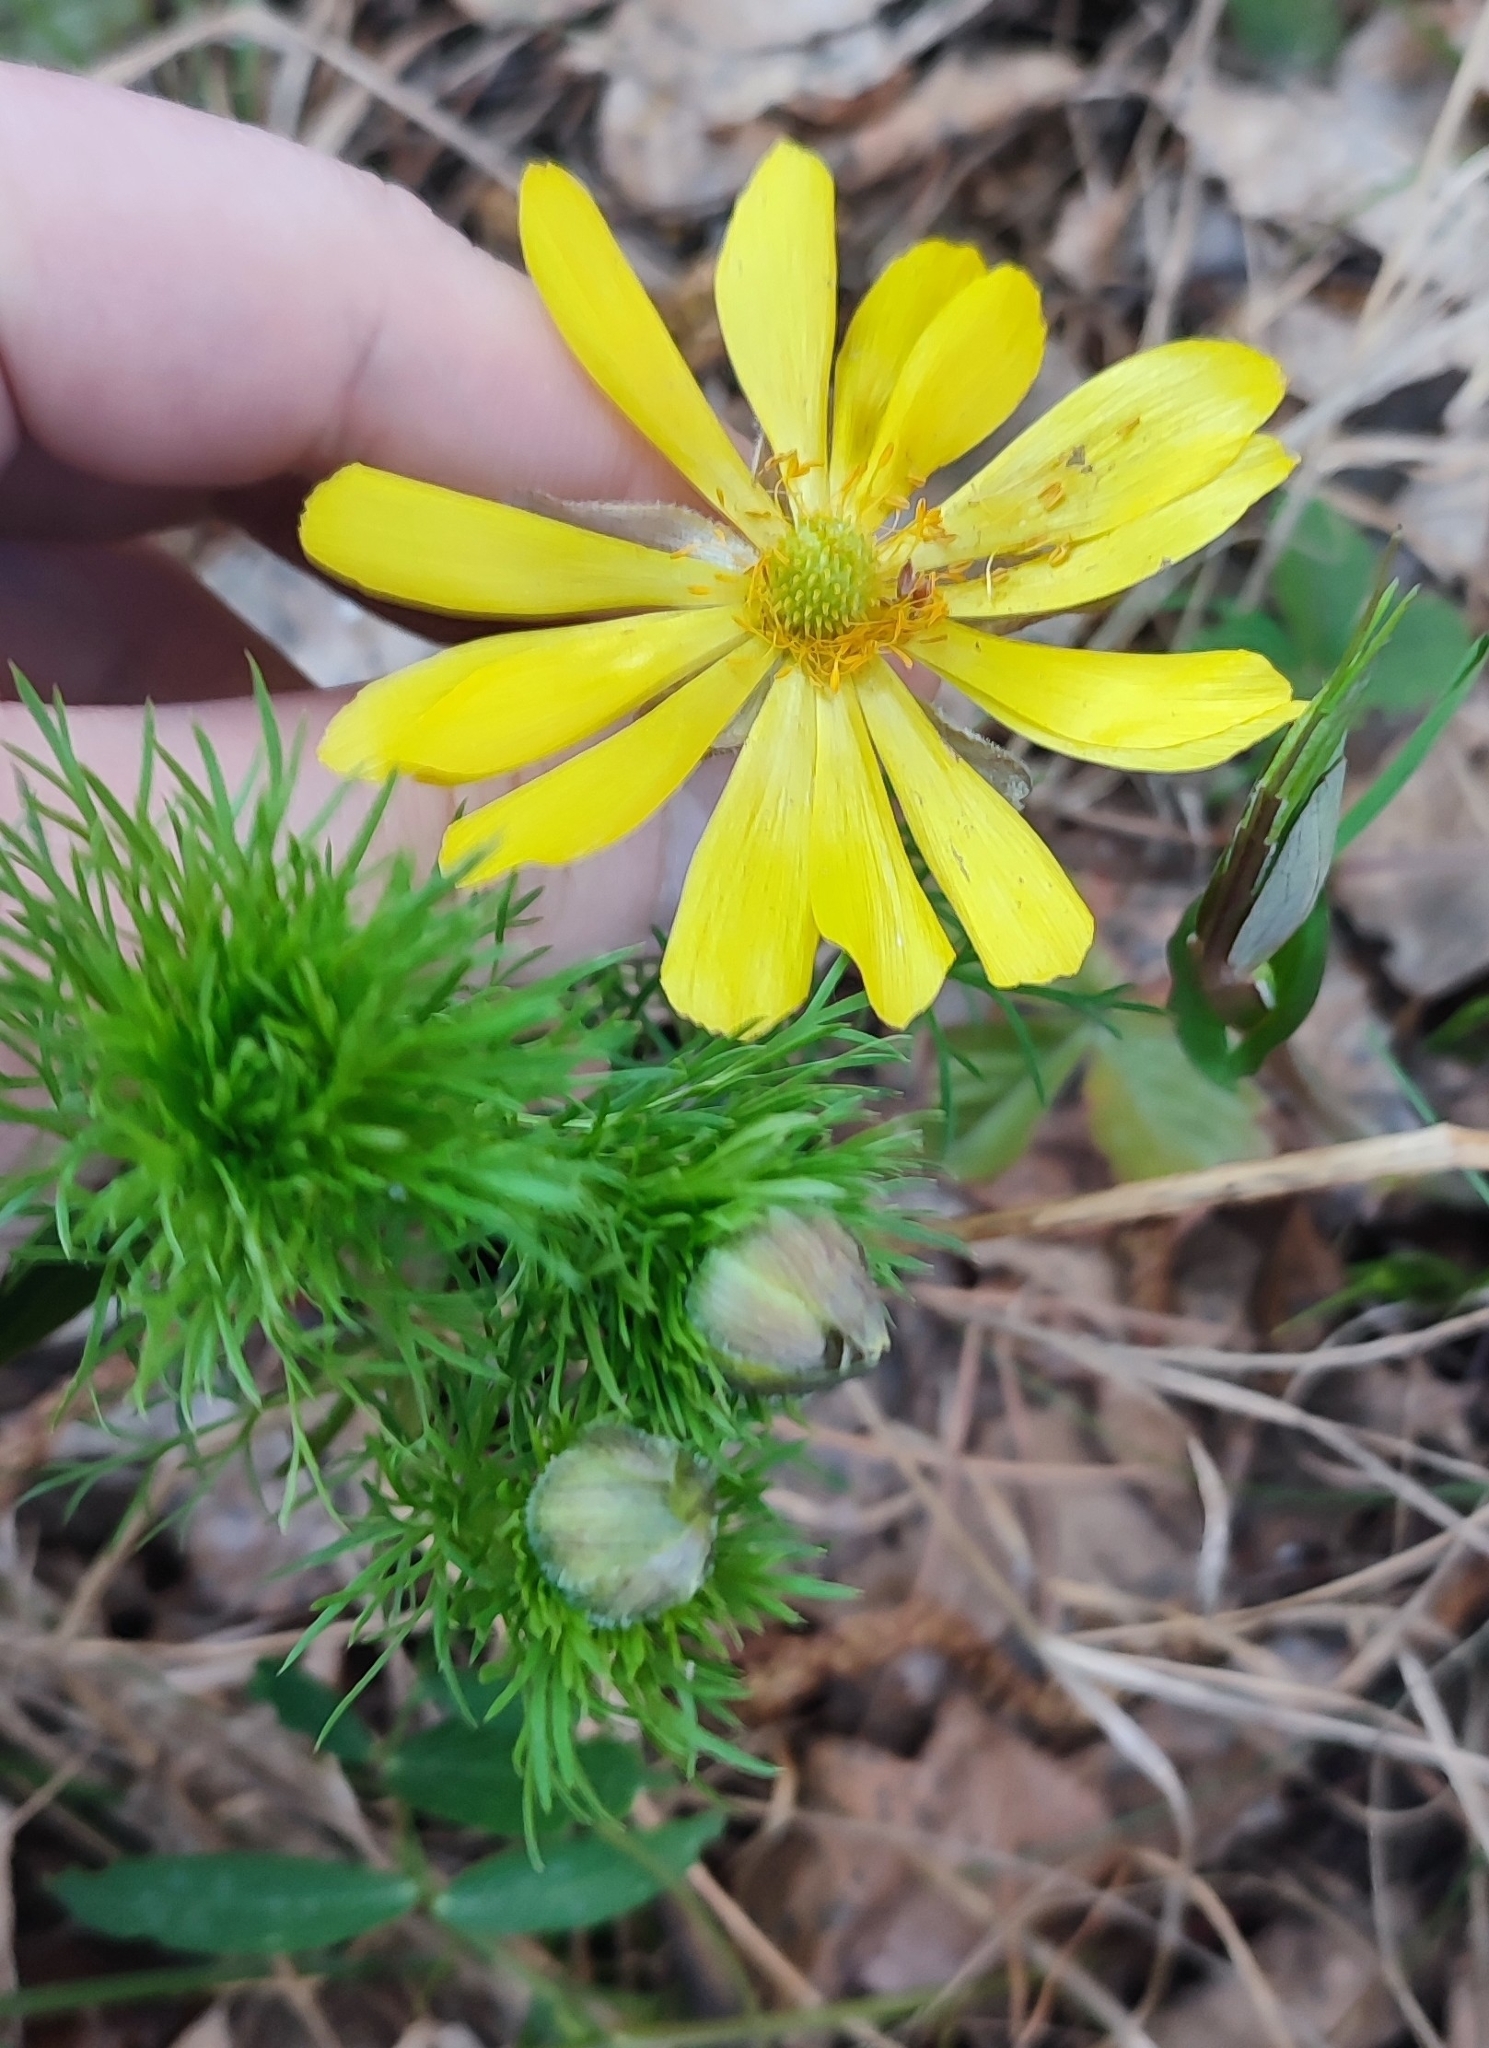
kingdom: Plantae
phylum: Tracheophyta
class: Magnoliopsida
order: Ranunculales
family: Ranunculaceae
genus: Adonis
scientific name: Adonis vernalis
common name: Yellow pheasants-eye
